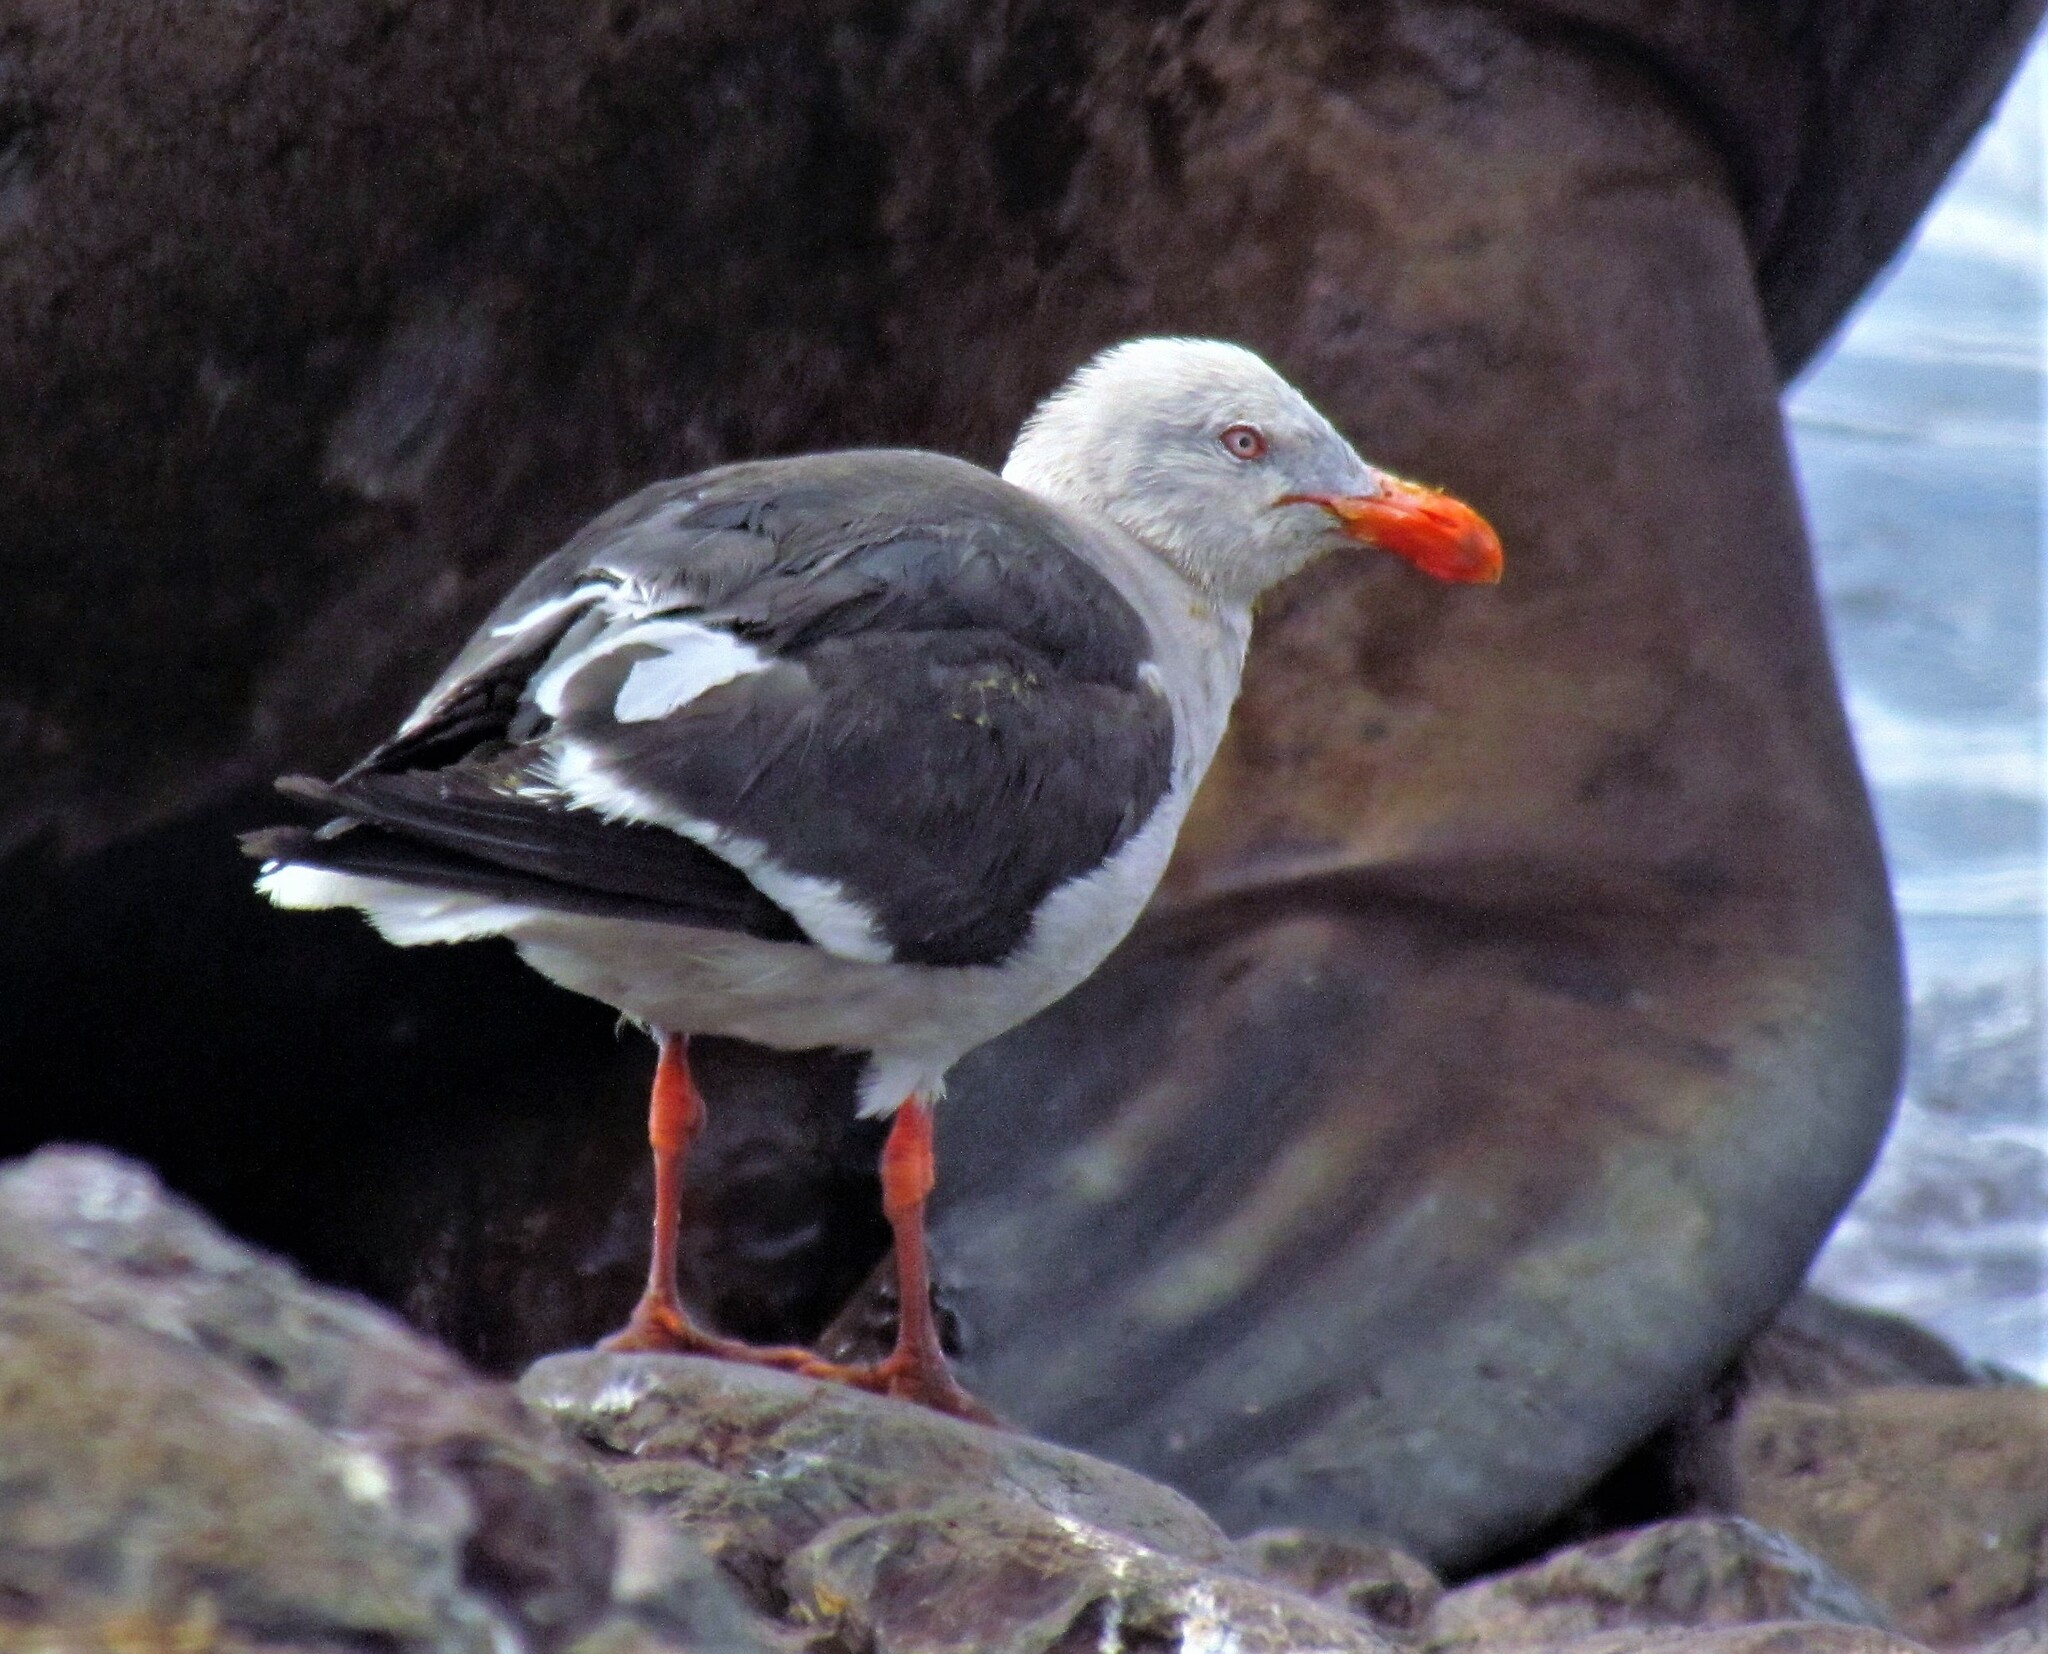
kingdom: Animalia
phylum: Chordata
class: Aves
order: Charadriiformes
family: Laridae
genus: Leucophaeus
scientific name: Leucophaeus scoresbii
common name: Dolphin gull
